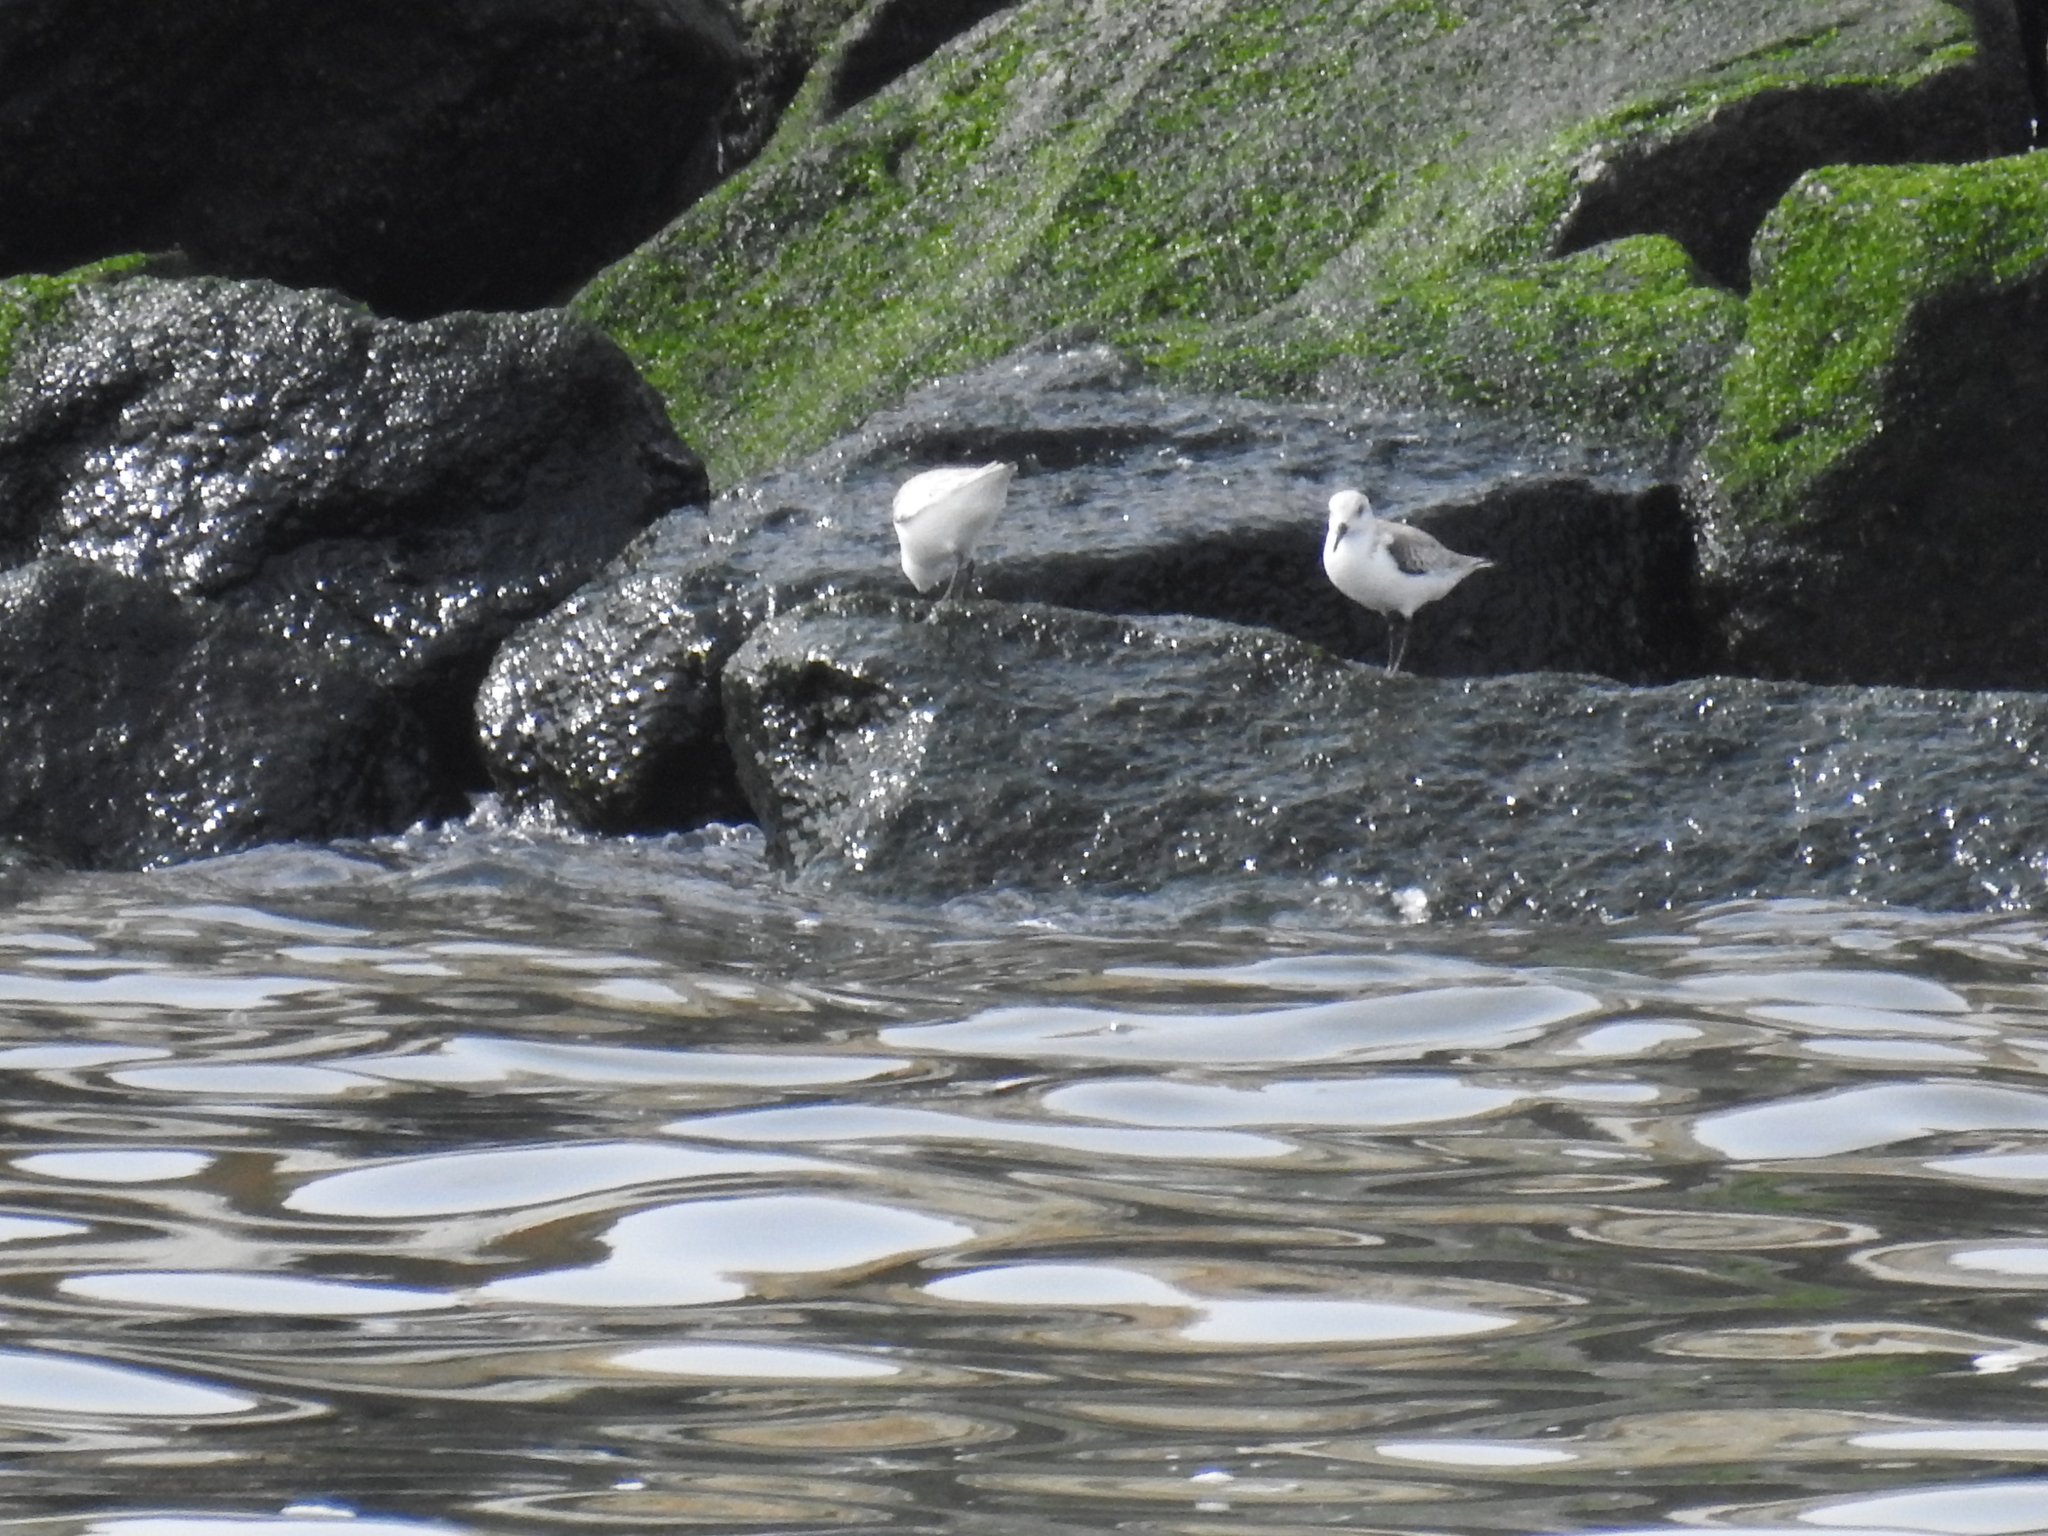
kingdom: Animalia
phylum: Chordata
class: Aves
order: Charadriiformes
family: Scolopacidae
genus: Calidris
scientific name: Calidris alba
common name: Sanderling
